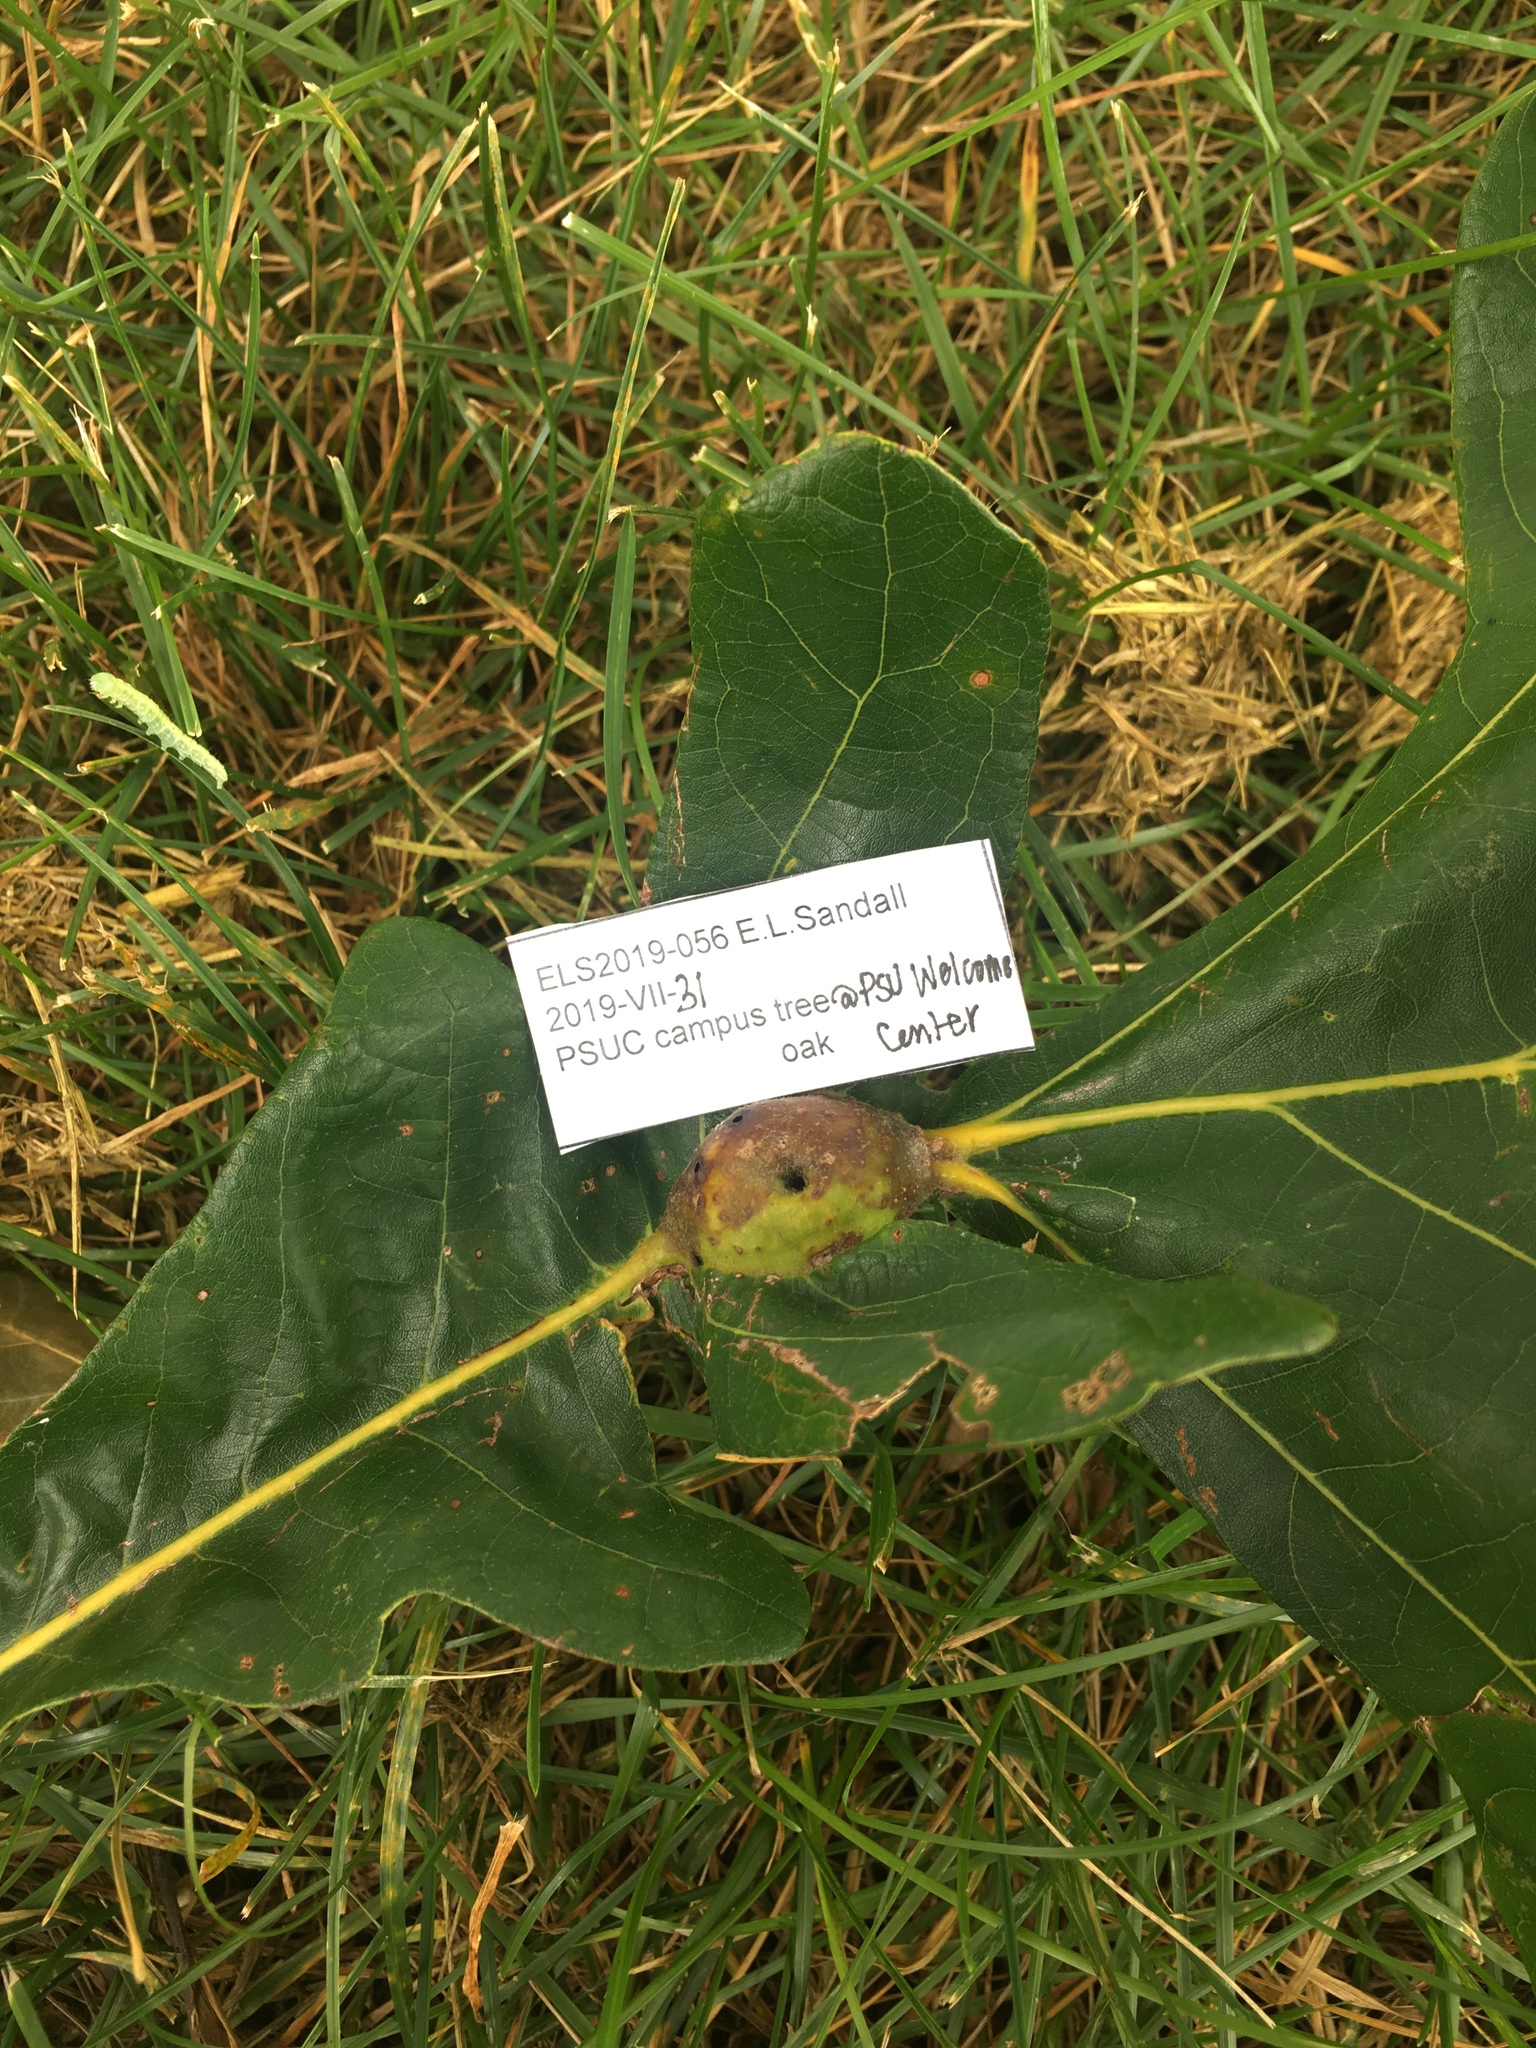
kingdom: Animalia
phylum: Arthropoda
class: Insecta
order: Hymenoptera
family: Cynipidae
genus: Andricus
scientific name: Andricus
